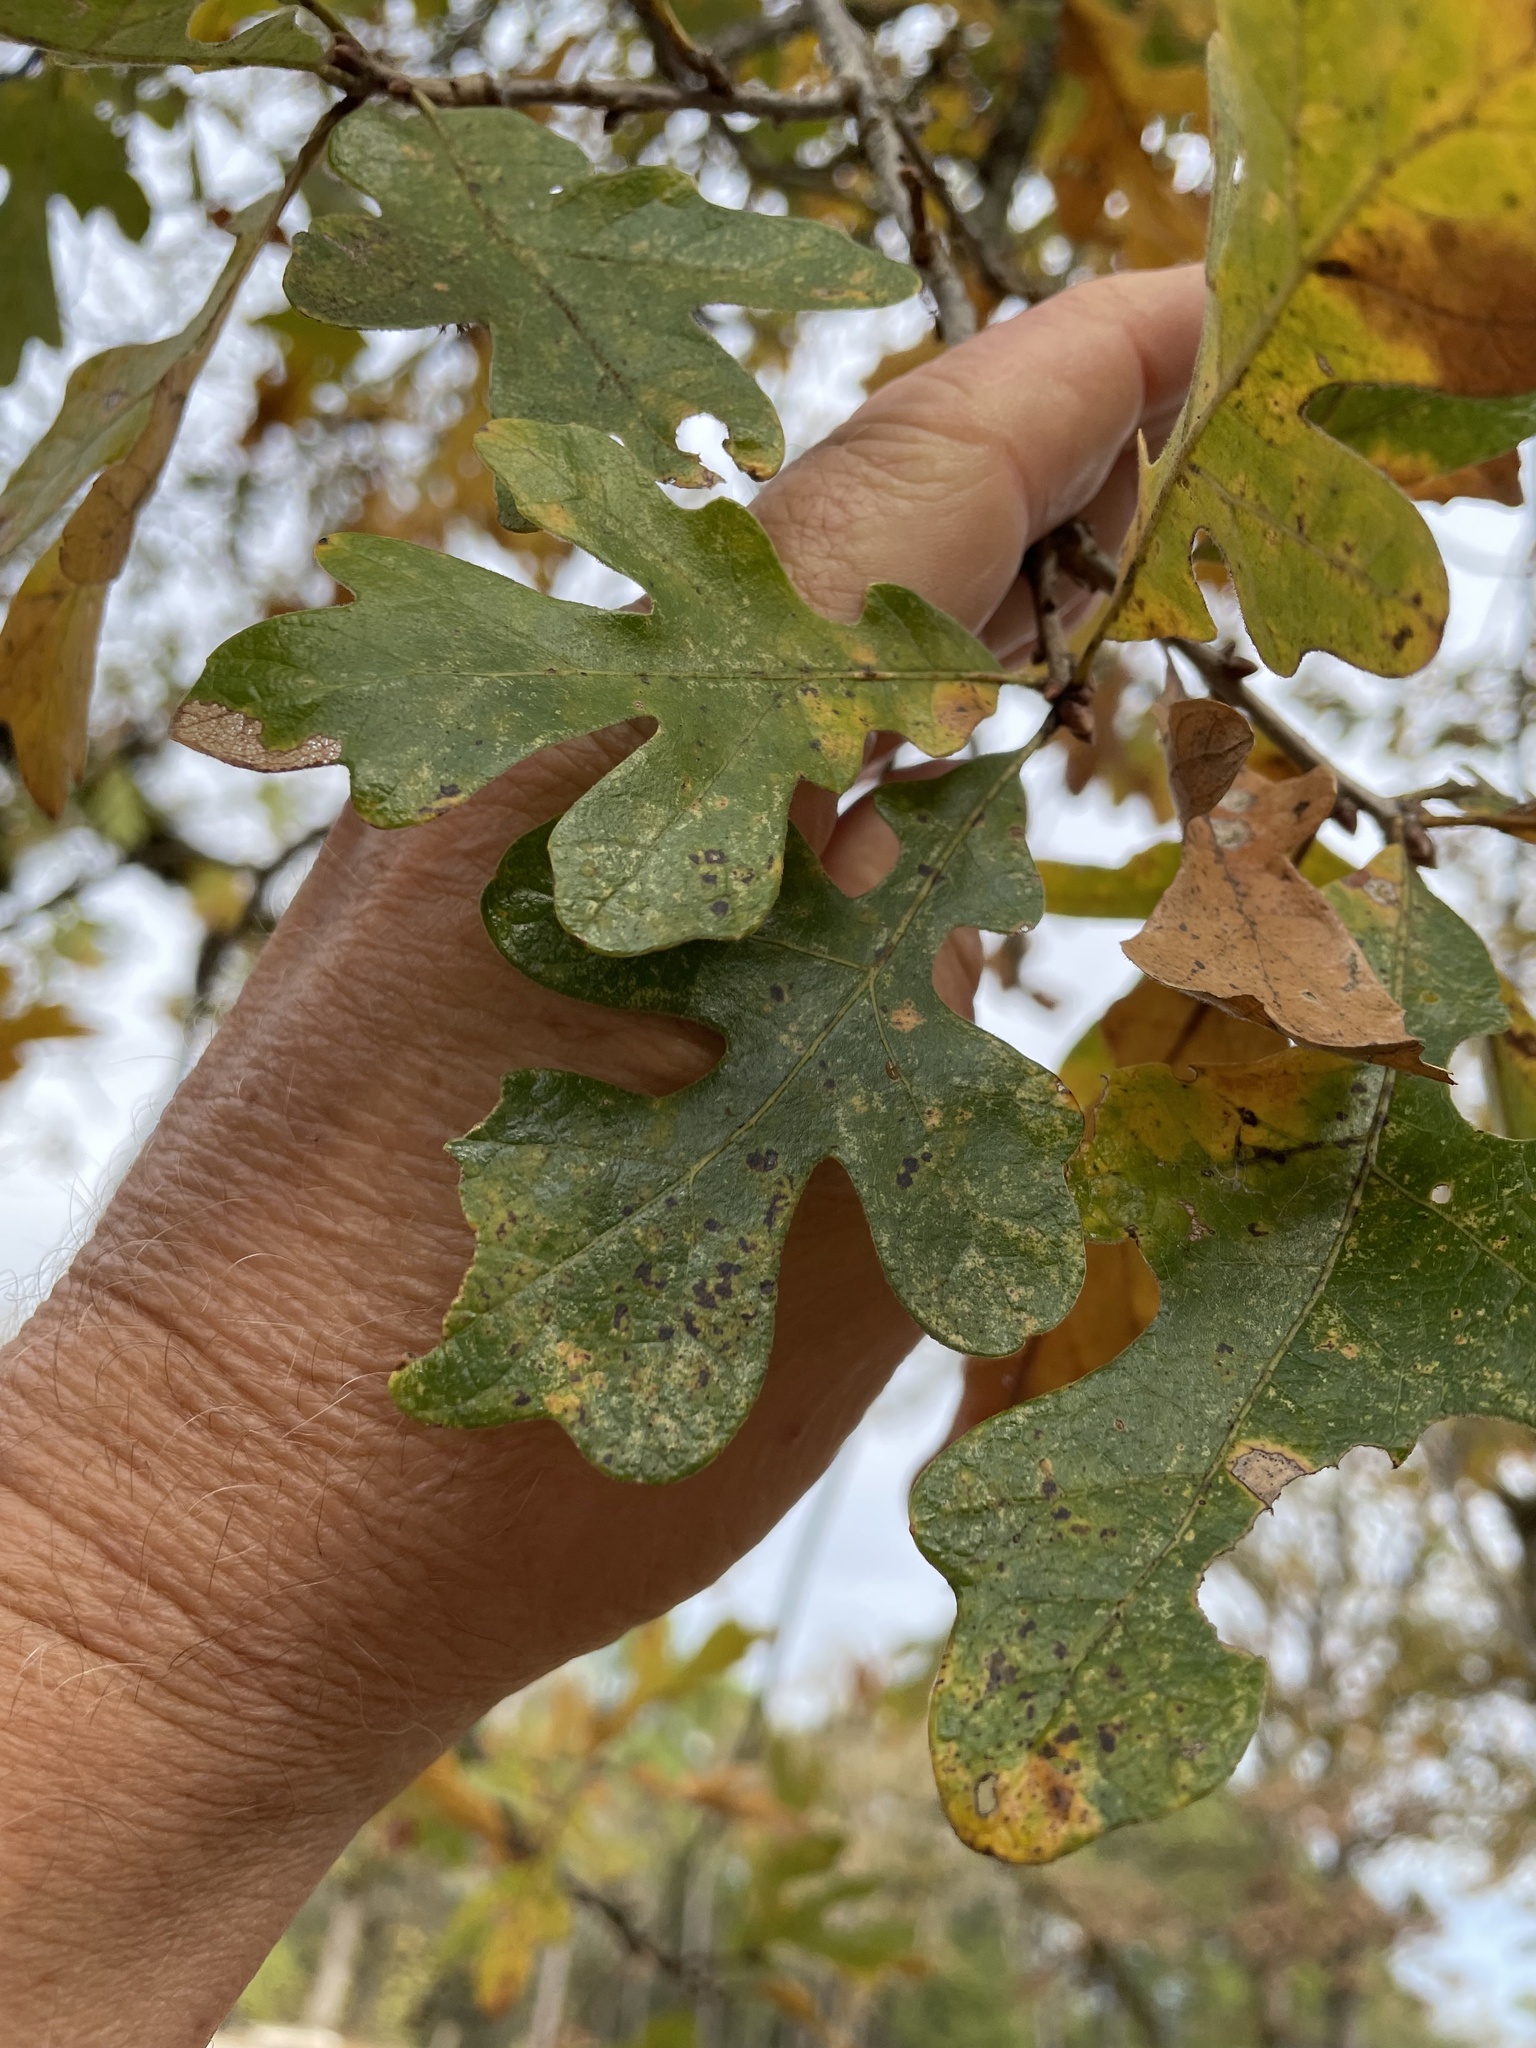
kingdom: Plantae
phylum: Tracheophyta
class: Magnoliopsida
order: Fagales
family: Fagaceae
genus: Quercus
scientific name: Quercus stellata
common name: Post oak
